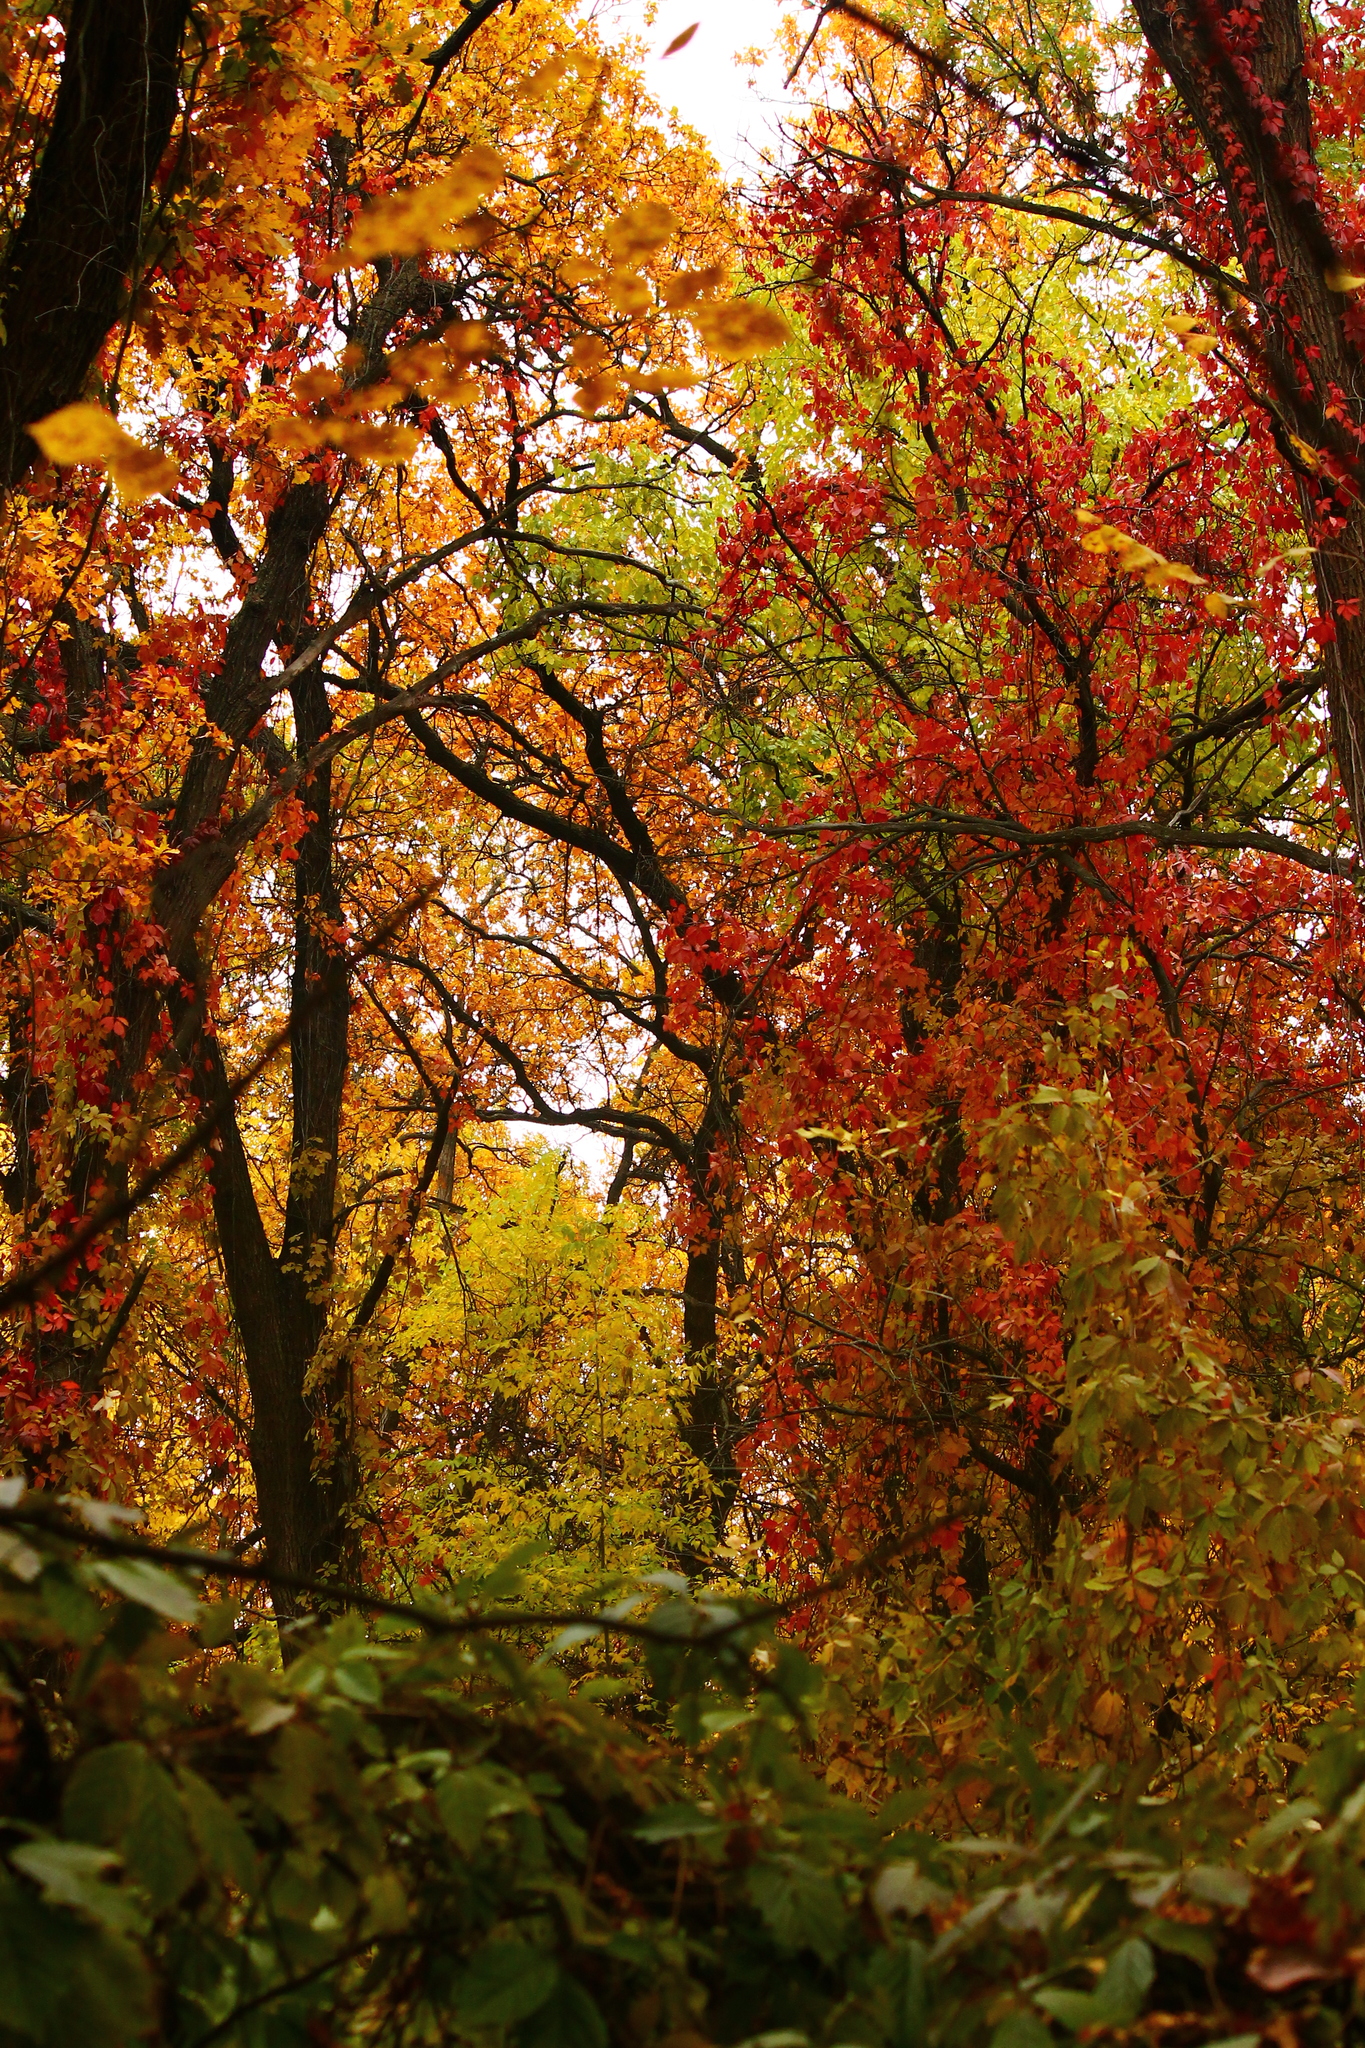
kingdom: Plantae
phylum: Tracheophyta
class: Magnoliopsida
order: Vitales
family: Vitaceae
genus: Parthenocissus
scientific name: Parthenocissus inserta
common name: False virginia-creeper
